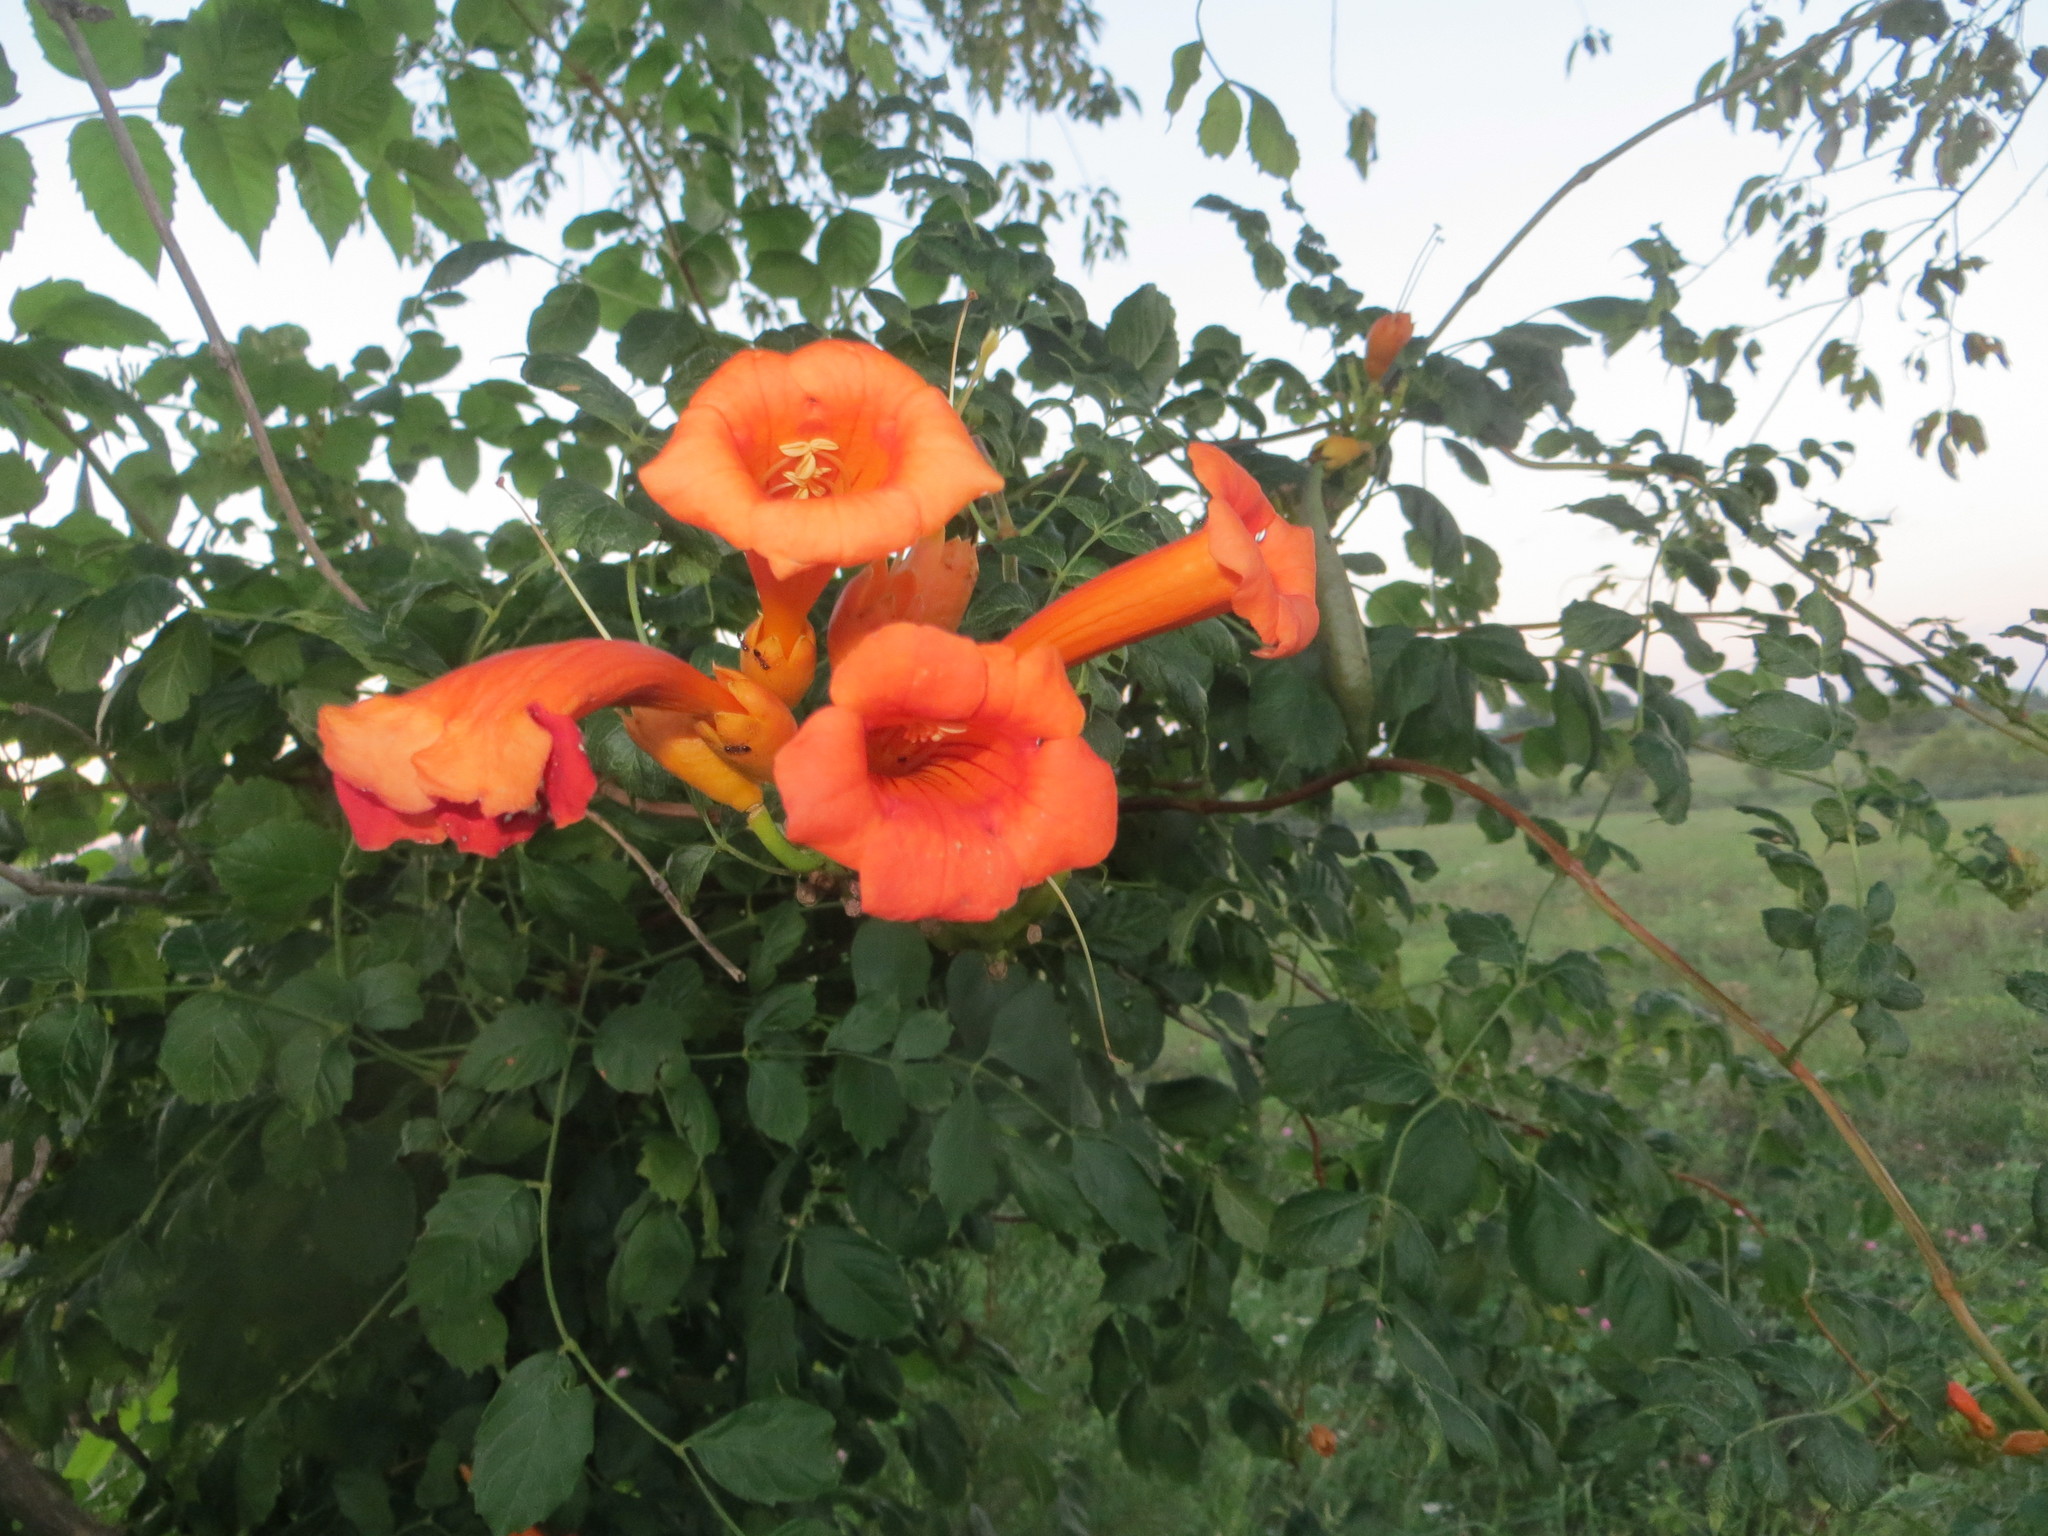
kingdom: Plantae
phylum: Tracheophyta
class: Magnoliopsida
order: Lamiales
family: Bignoniaceae
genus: Campsis
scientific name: Campsis radicans
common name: Trumpet-creeper
